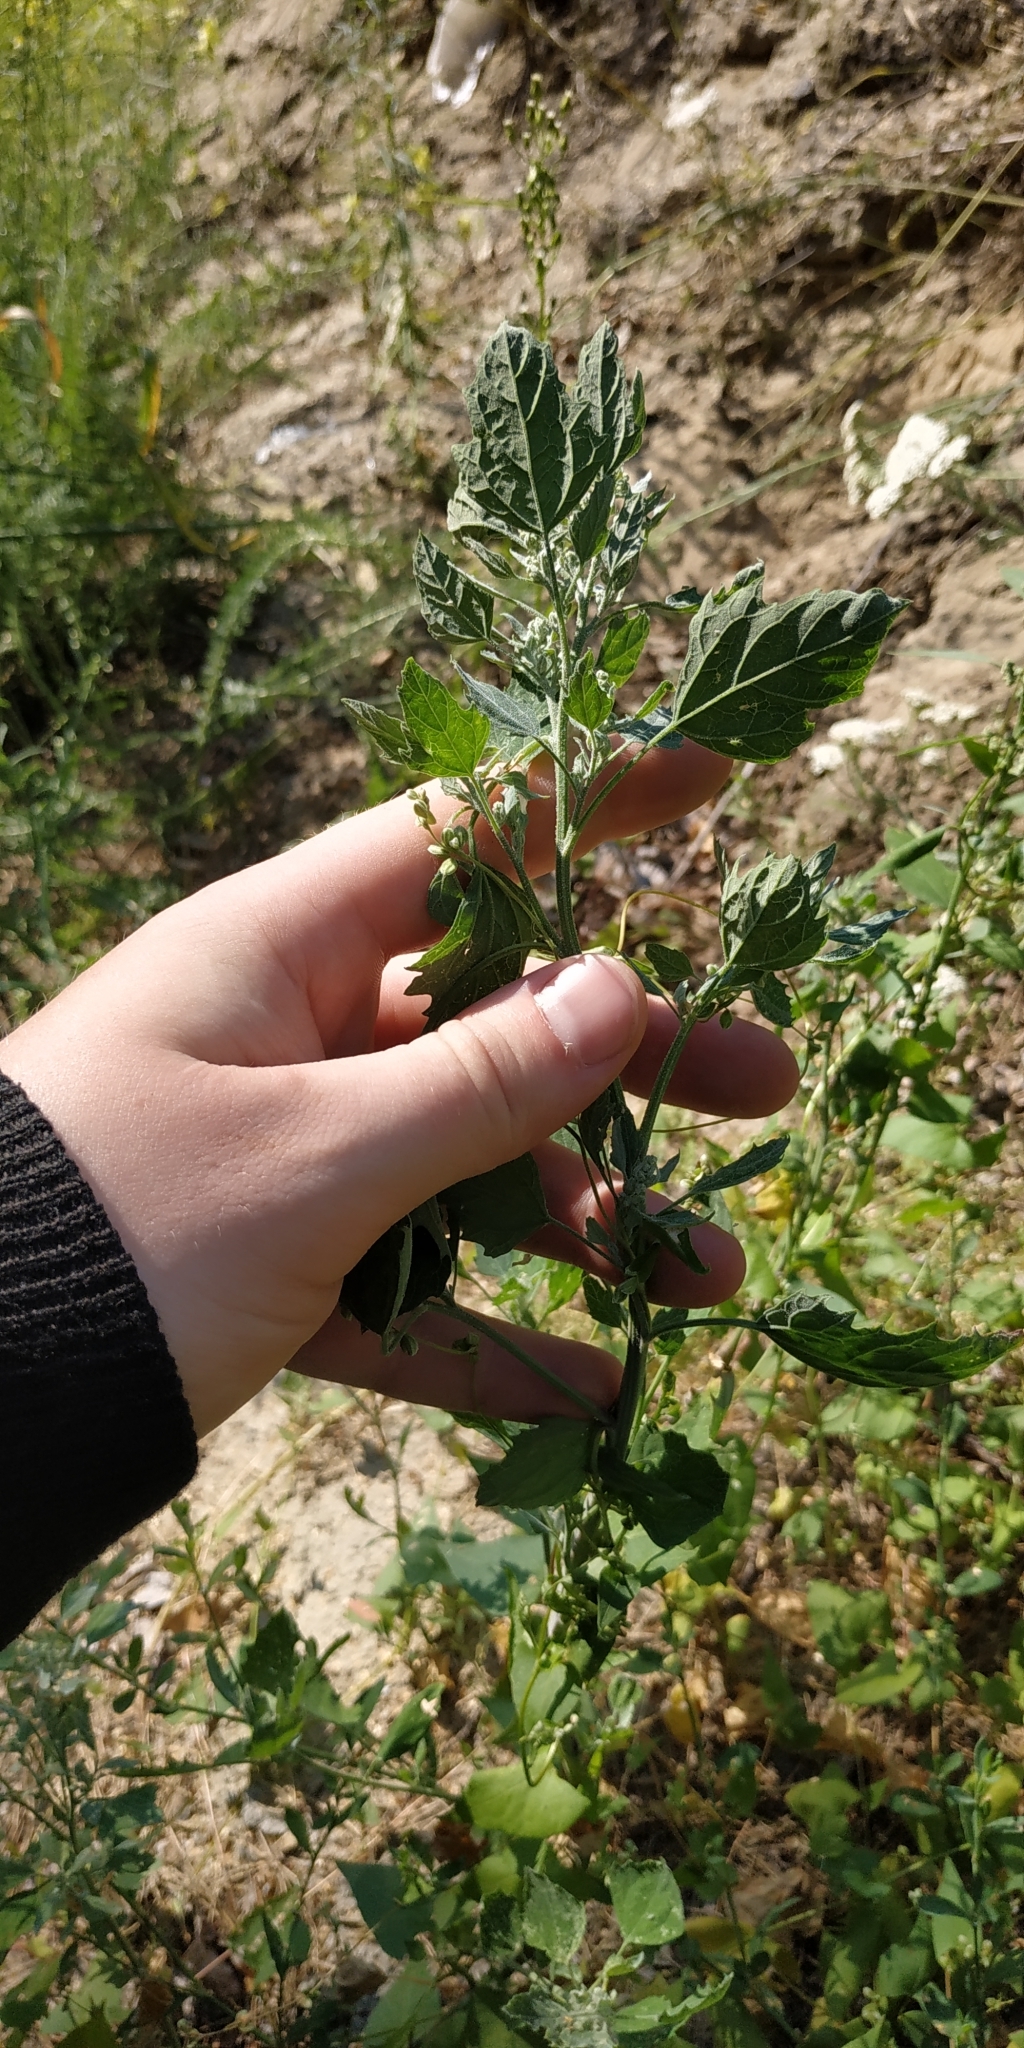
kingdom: Plantae
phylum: Tracheophyta
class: Magnoliopsida
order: Caryophyllales
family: Amaranthaceae
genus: Chenopodium
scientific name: Chenopodium album
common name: Fat-hen
